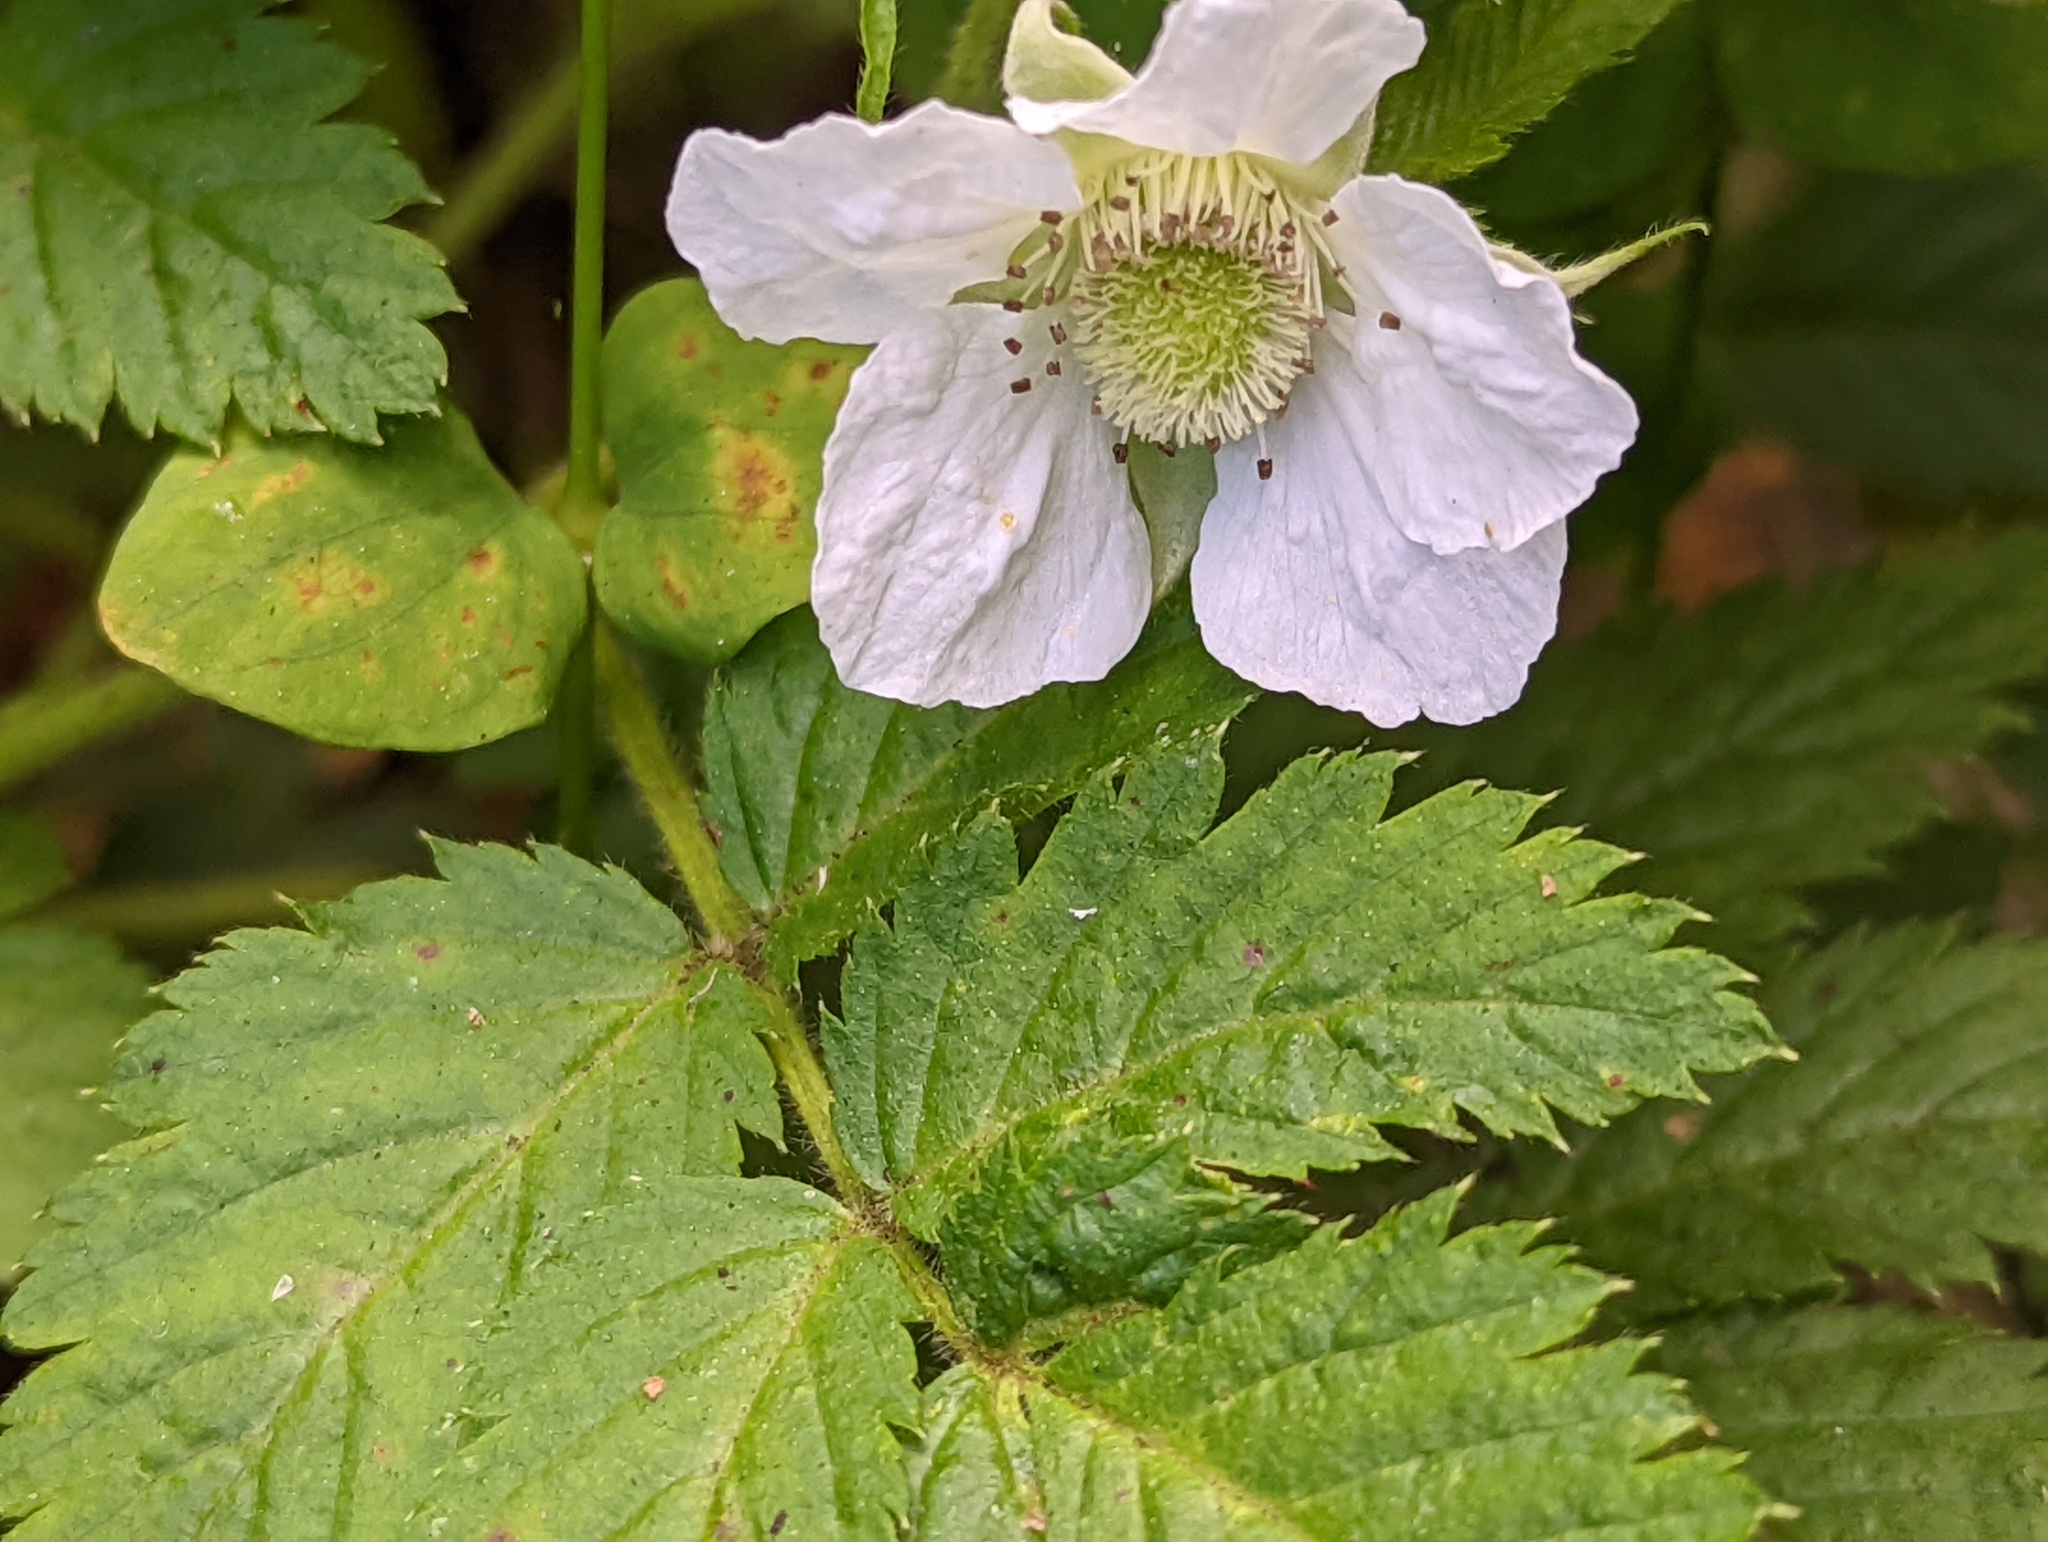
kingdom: Plantae
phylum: Tracheophyta
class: Magnoliopsida
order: Rosales
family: Rosaceae
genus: Rubus
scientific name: Rubus rosifolius
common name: Roseleaf raspberry
